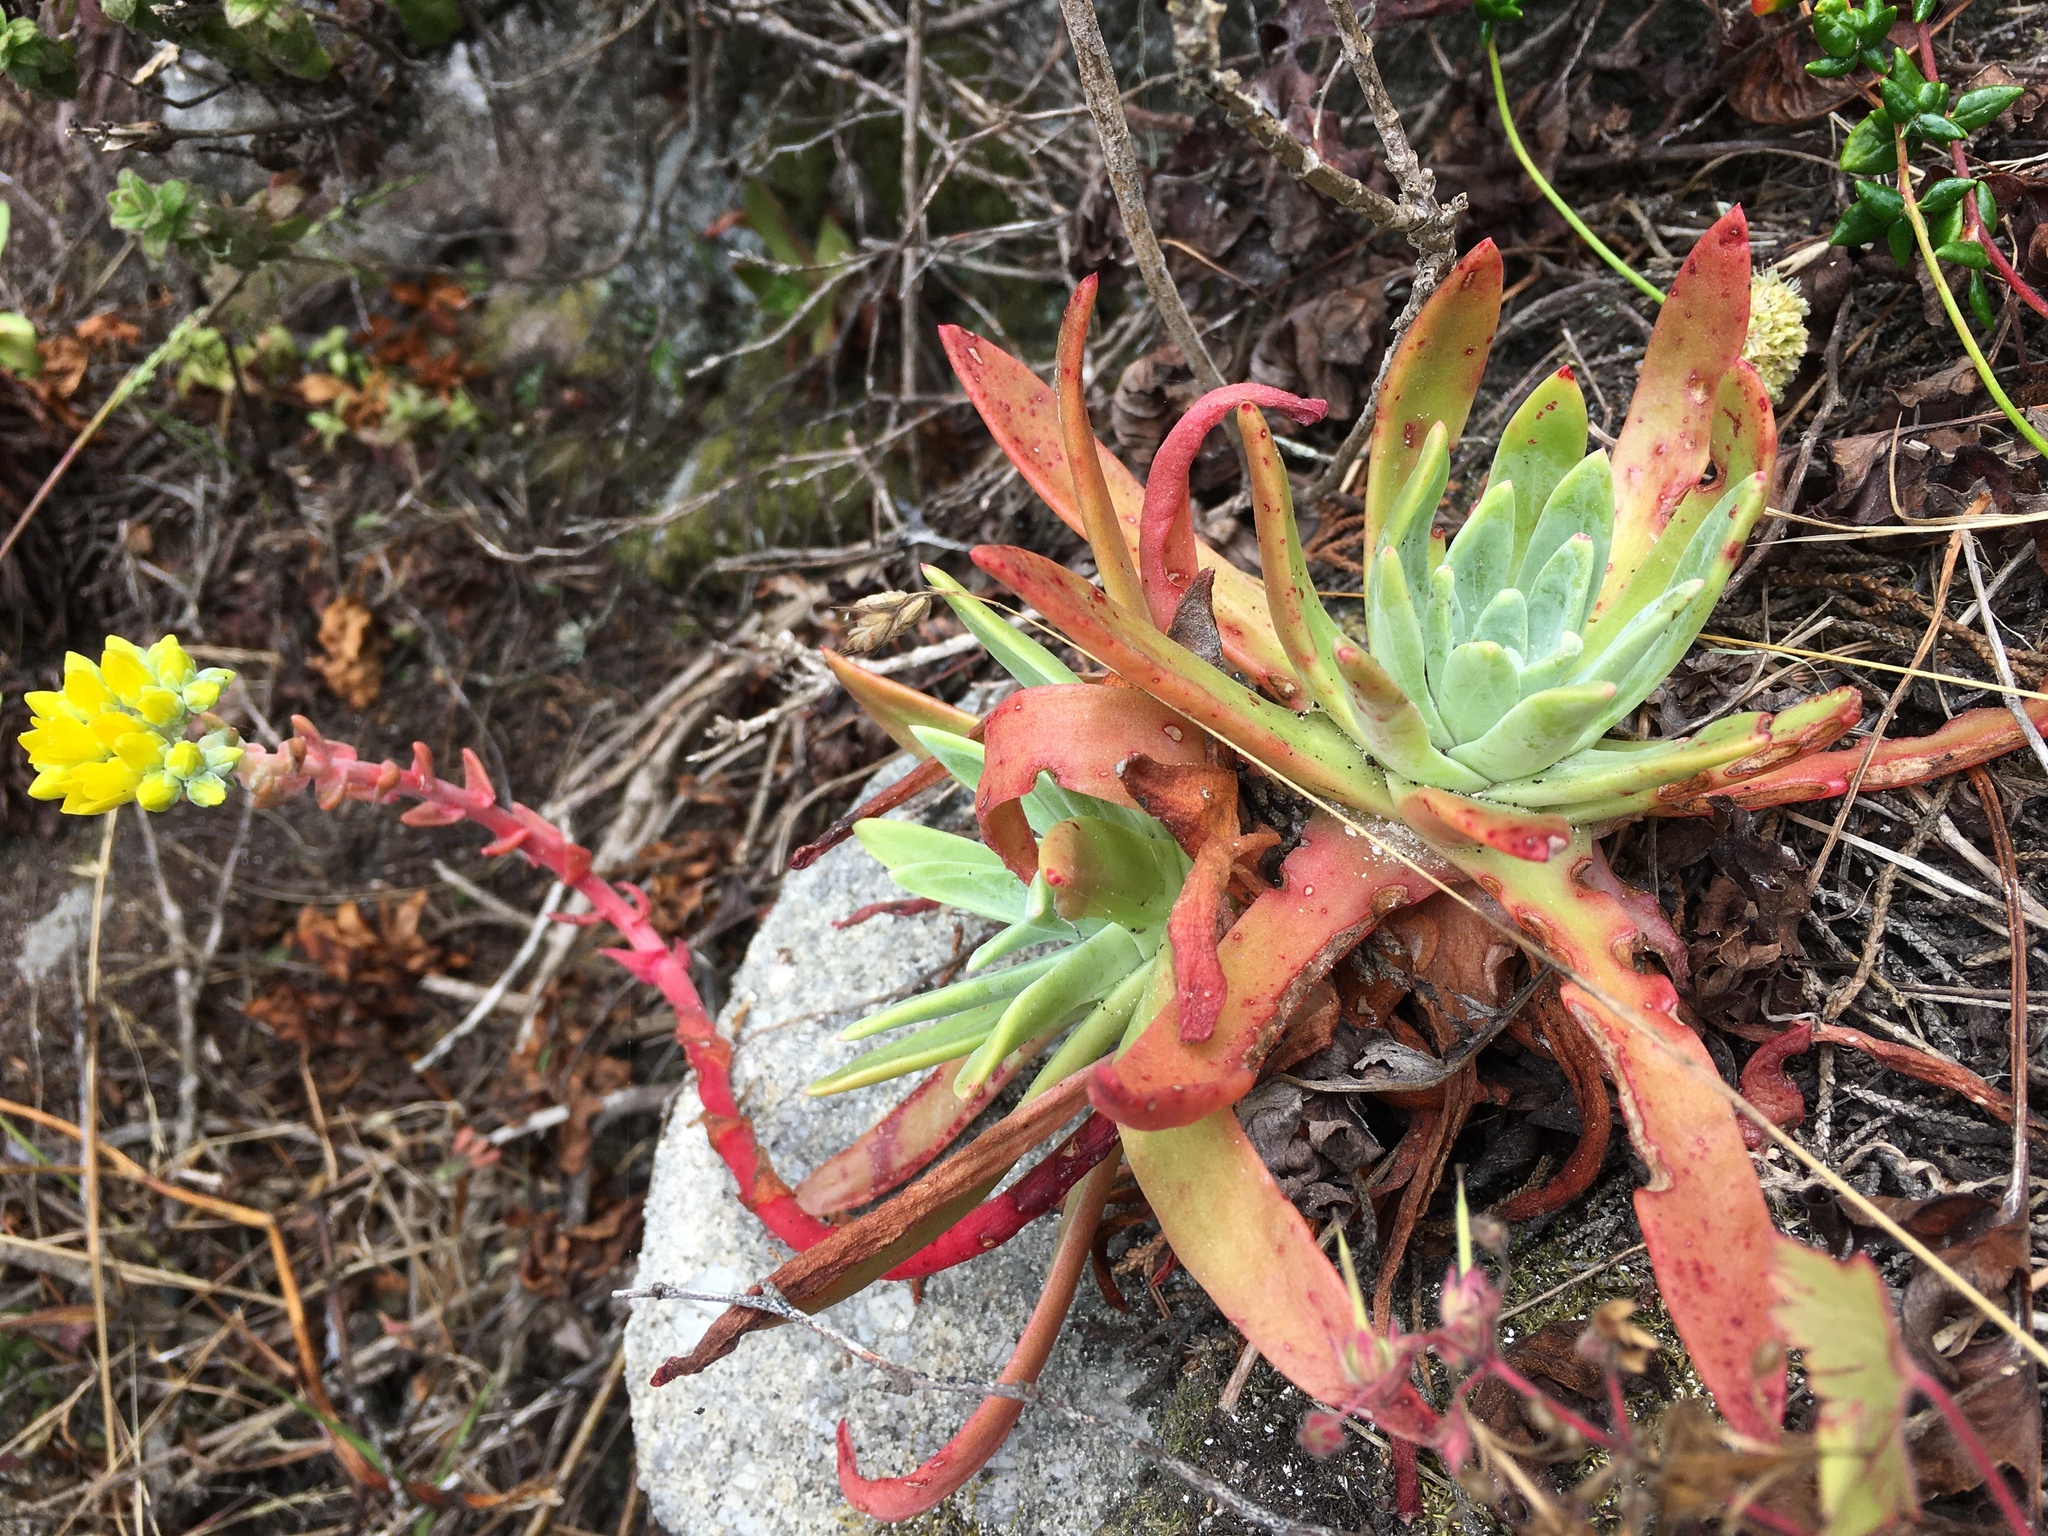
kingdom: Plantae
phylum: Tracheophyta
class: Magnoliopsida
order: Saxifragales
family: Crassulaceae
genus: Dudleya
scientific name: Dudleya caespitosa
